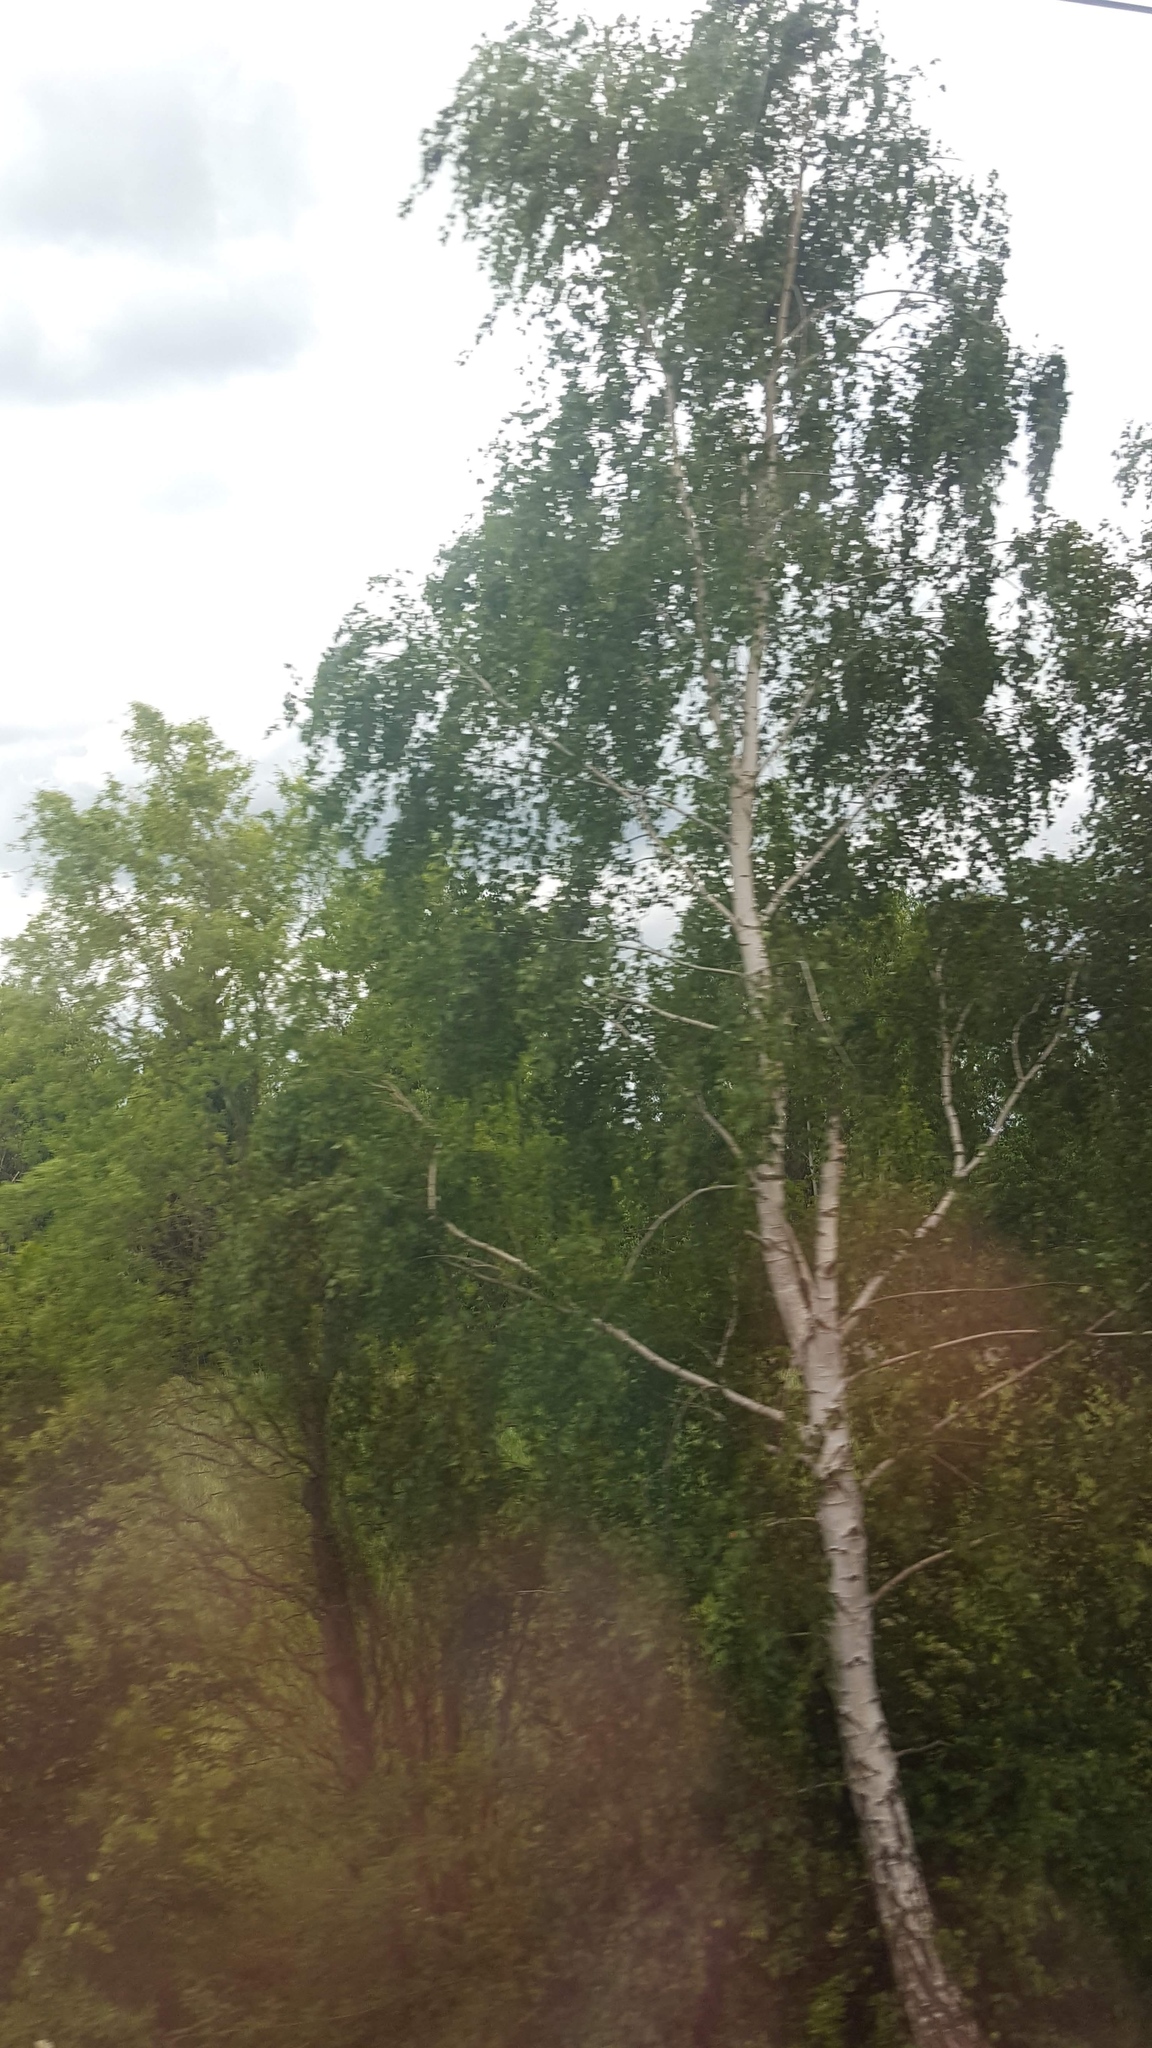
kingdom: Plantae
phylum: Tracheophyta
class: Magnoliopsida
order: Fagales
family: Betulaceae
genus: Betula
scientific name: Betula pendula
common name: Silver birch
